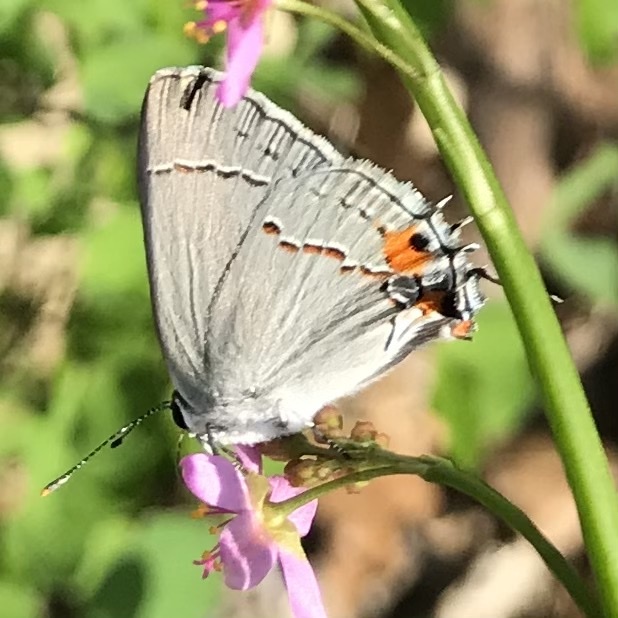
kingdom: Animalia
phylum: Arthropoda
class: Insecta
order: Lepidoptera
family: Lycaenidae
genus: Strymon
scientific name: Strymon melinus
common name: Gray hairstreak
